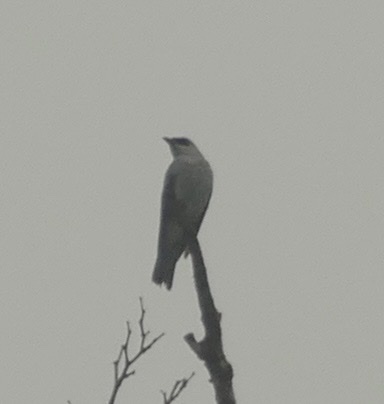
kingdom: Animalia
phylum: Chordata
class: Aves
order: Passeriformes
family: Campephagidae
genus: Coracina
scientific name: Coracina papuensis
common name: White-bellied cuckooshrike
